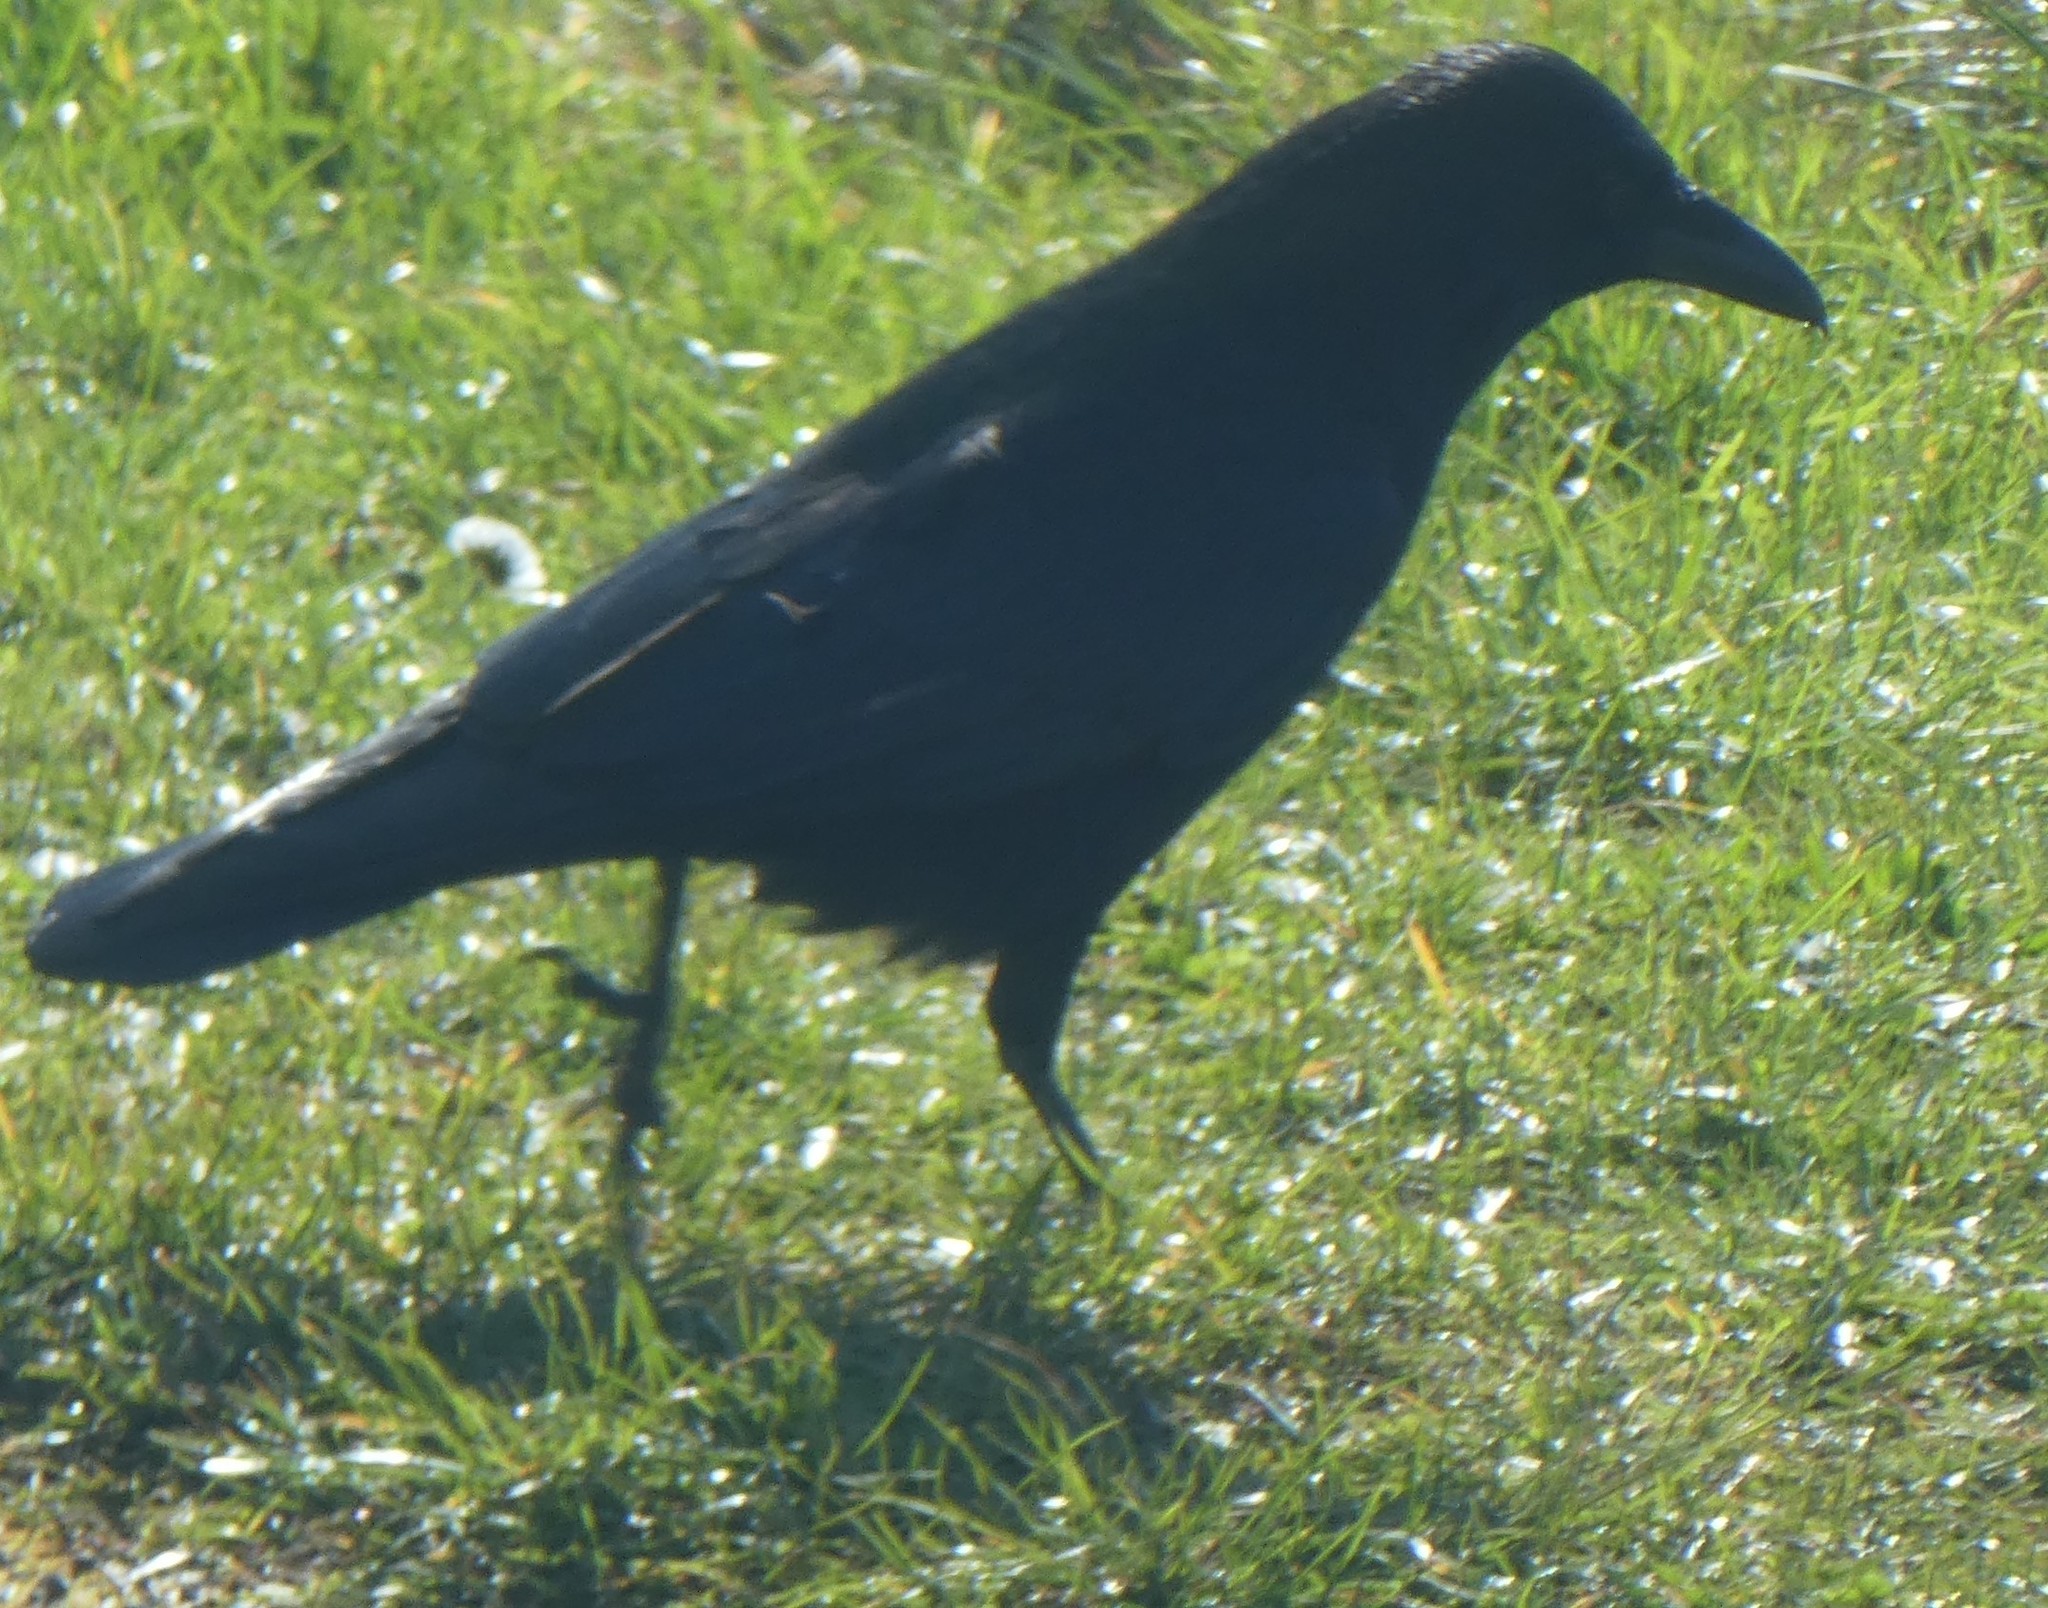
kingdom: Animalia
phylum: Chordata
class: Aves
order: Passeriformes
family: Corvidae
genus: Corvus
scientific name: Corvus corone
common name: Carrion crow
